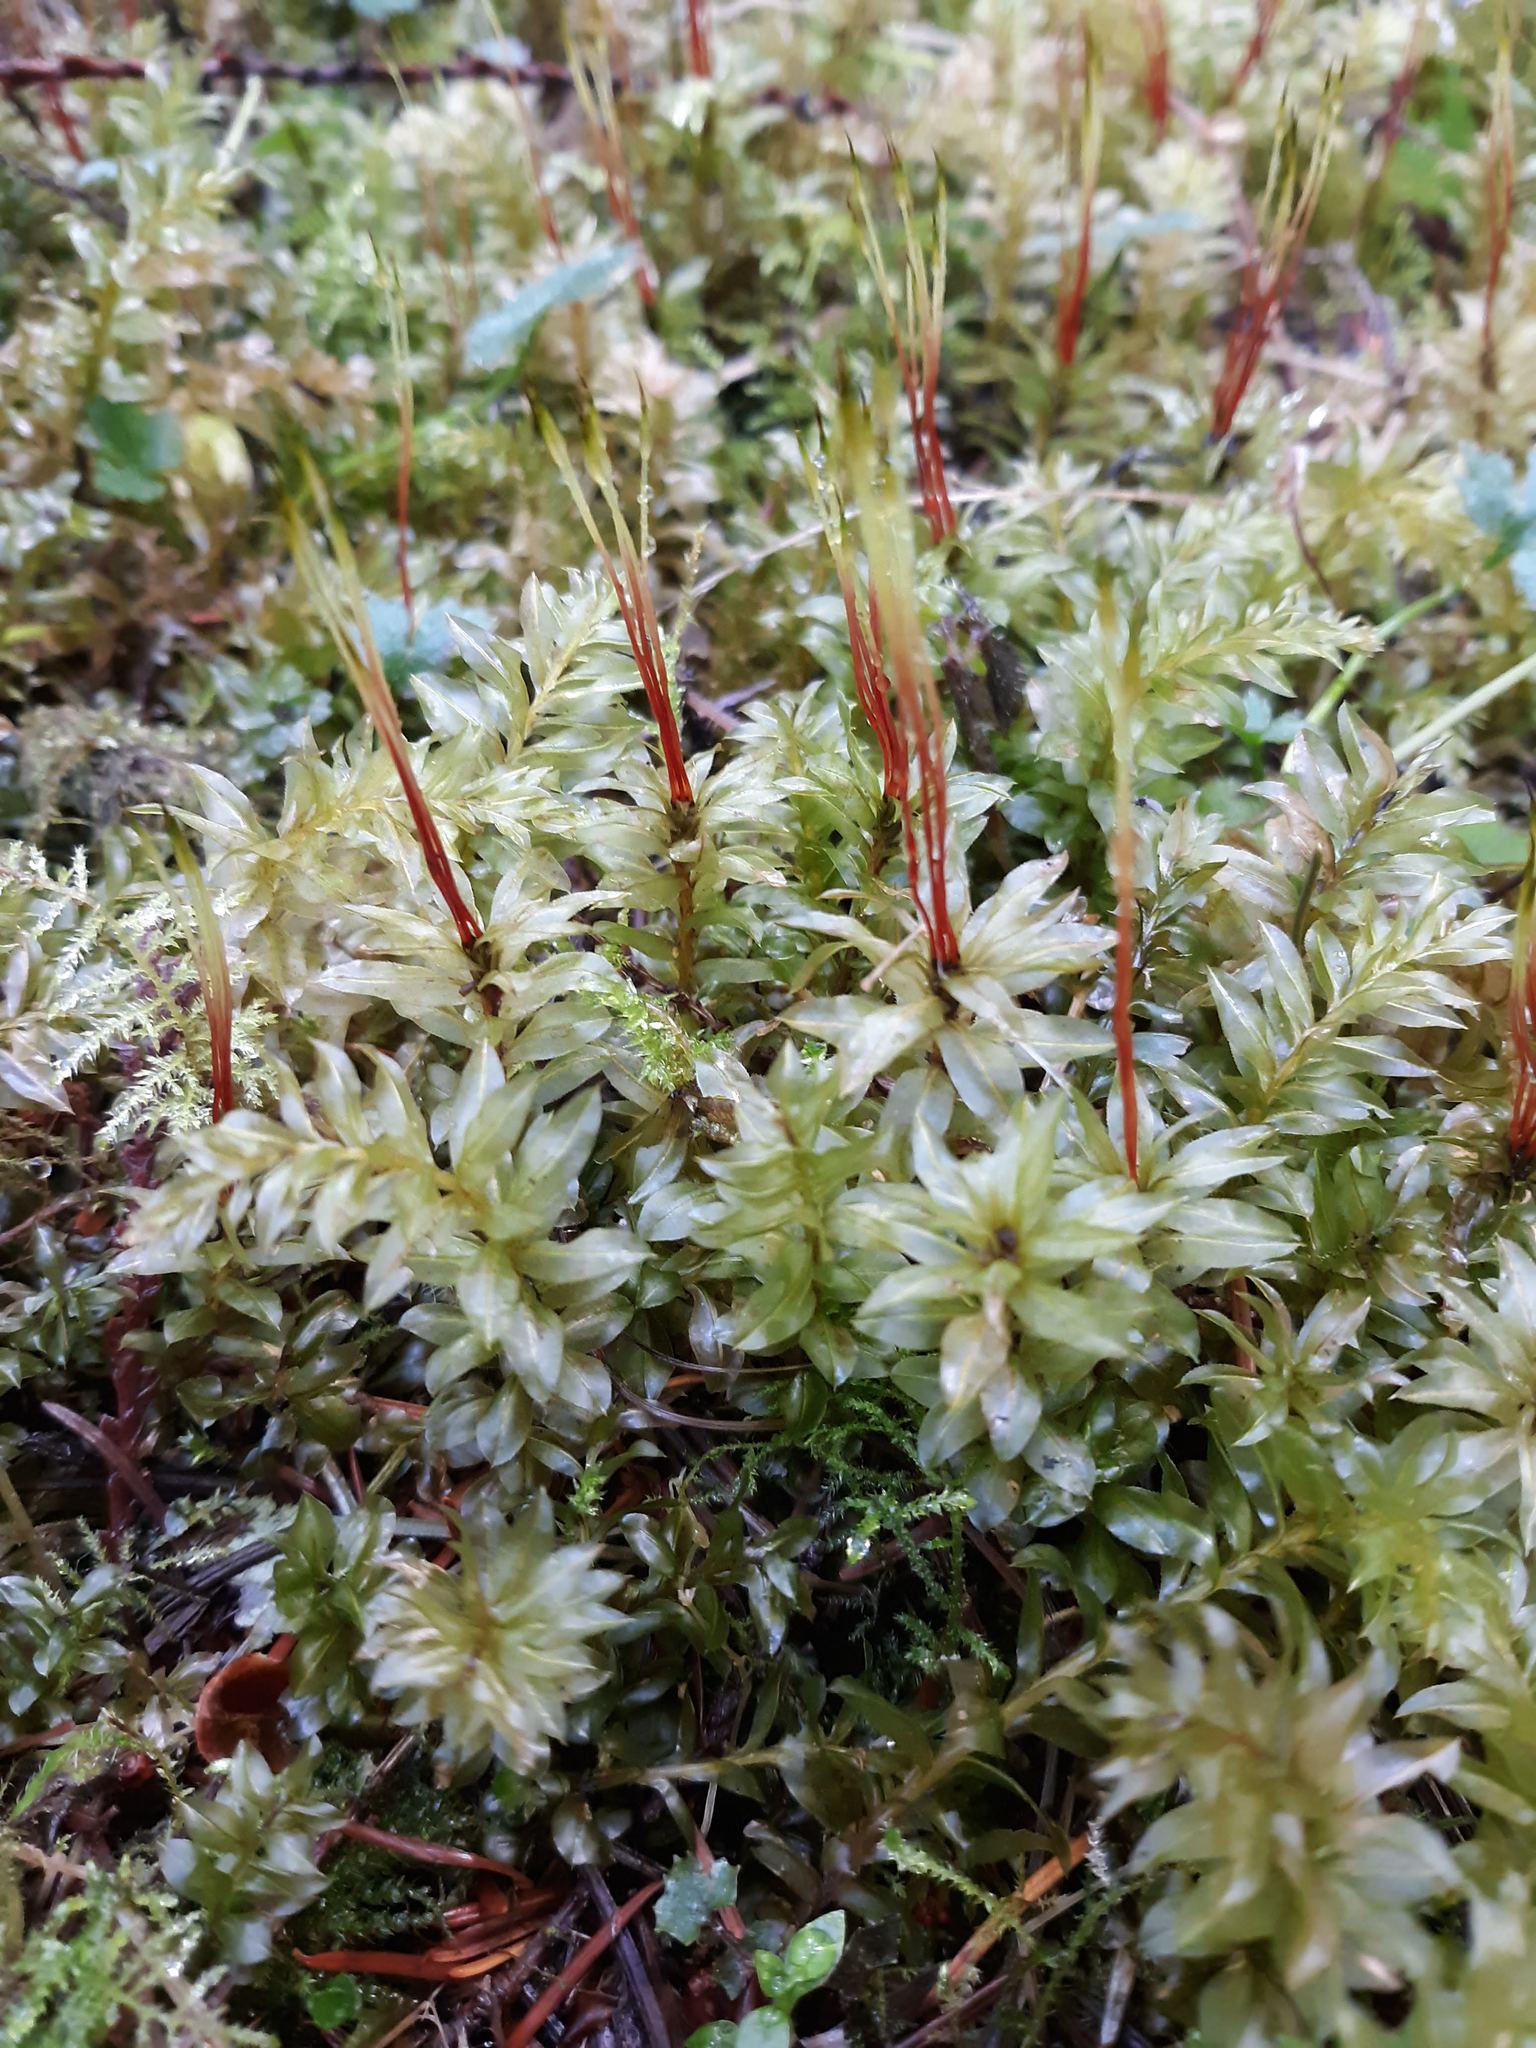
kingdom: Plantae
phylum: Bryophyta
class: Bryopsida
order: Bryales
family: Mniaceae
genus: Plagiomnium
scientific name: Plagiomnium insigne
